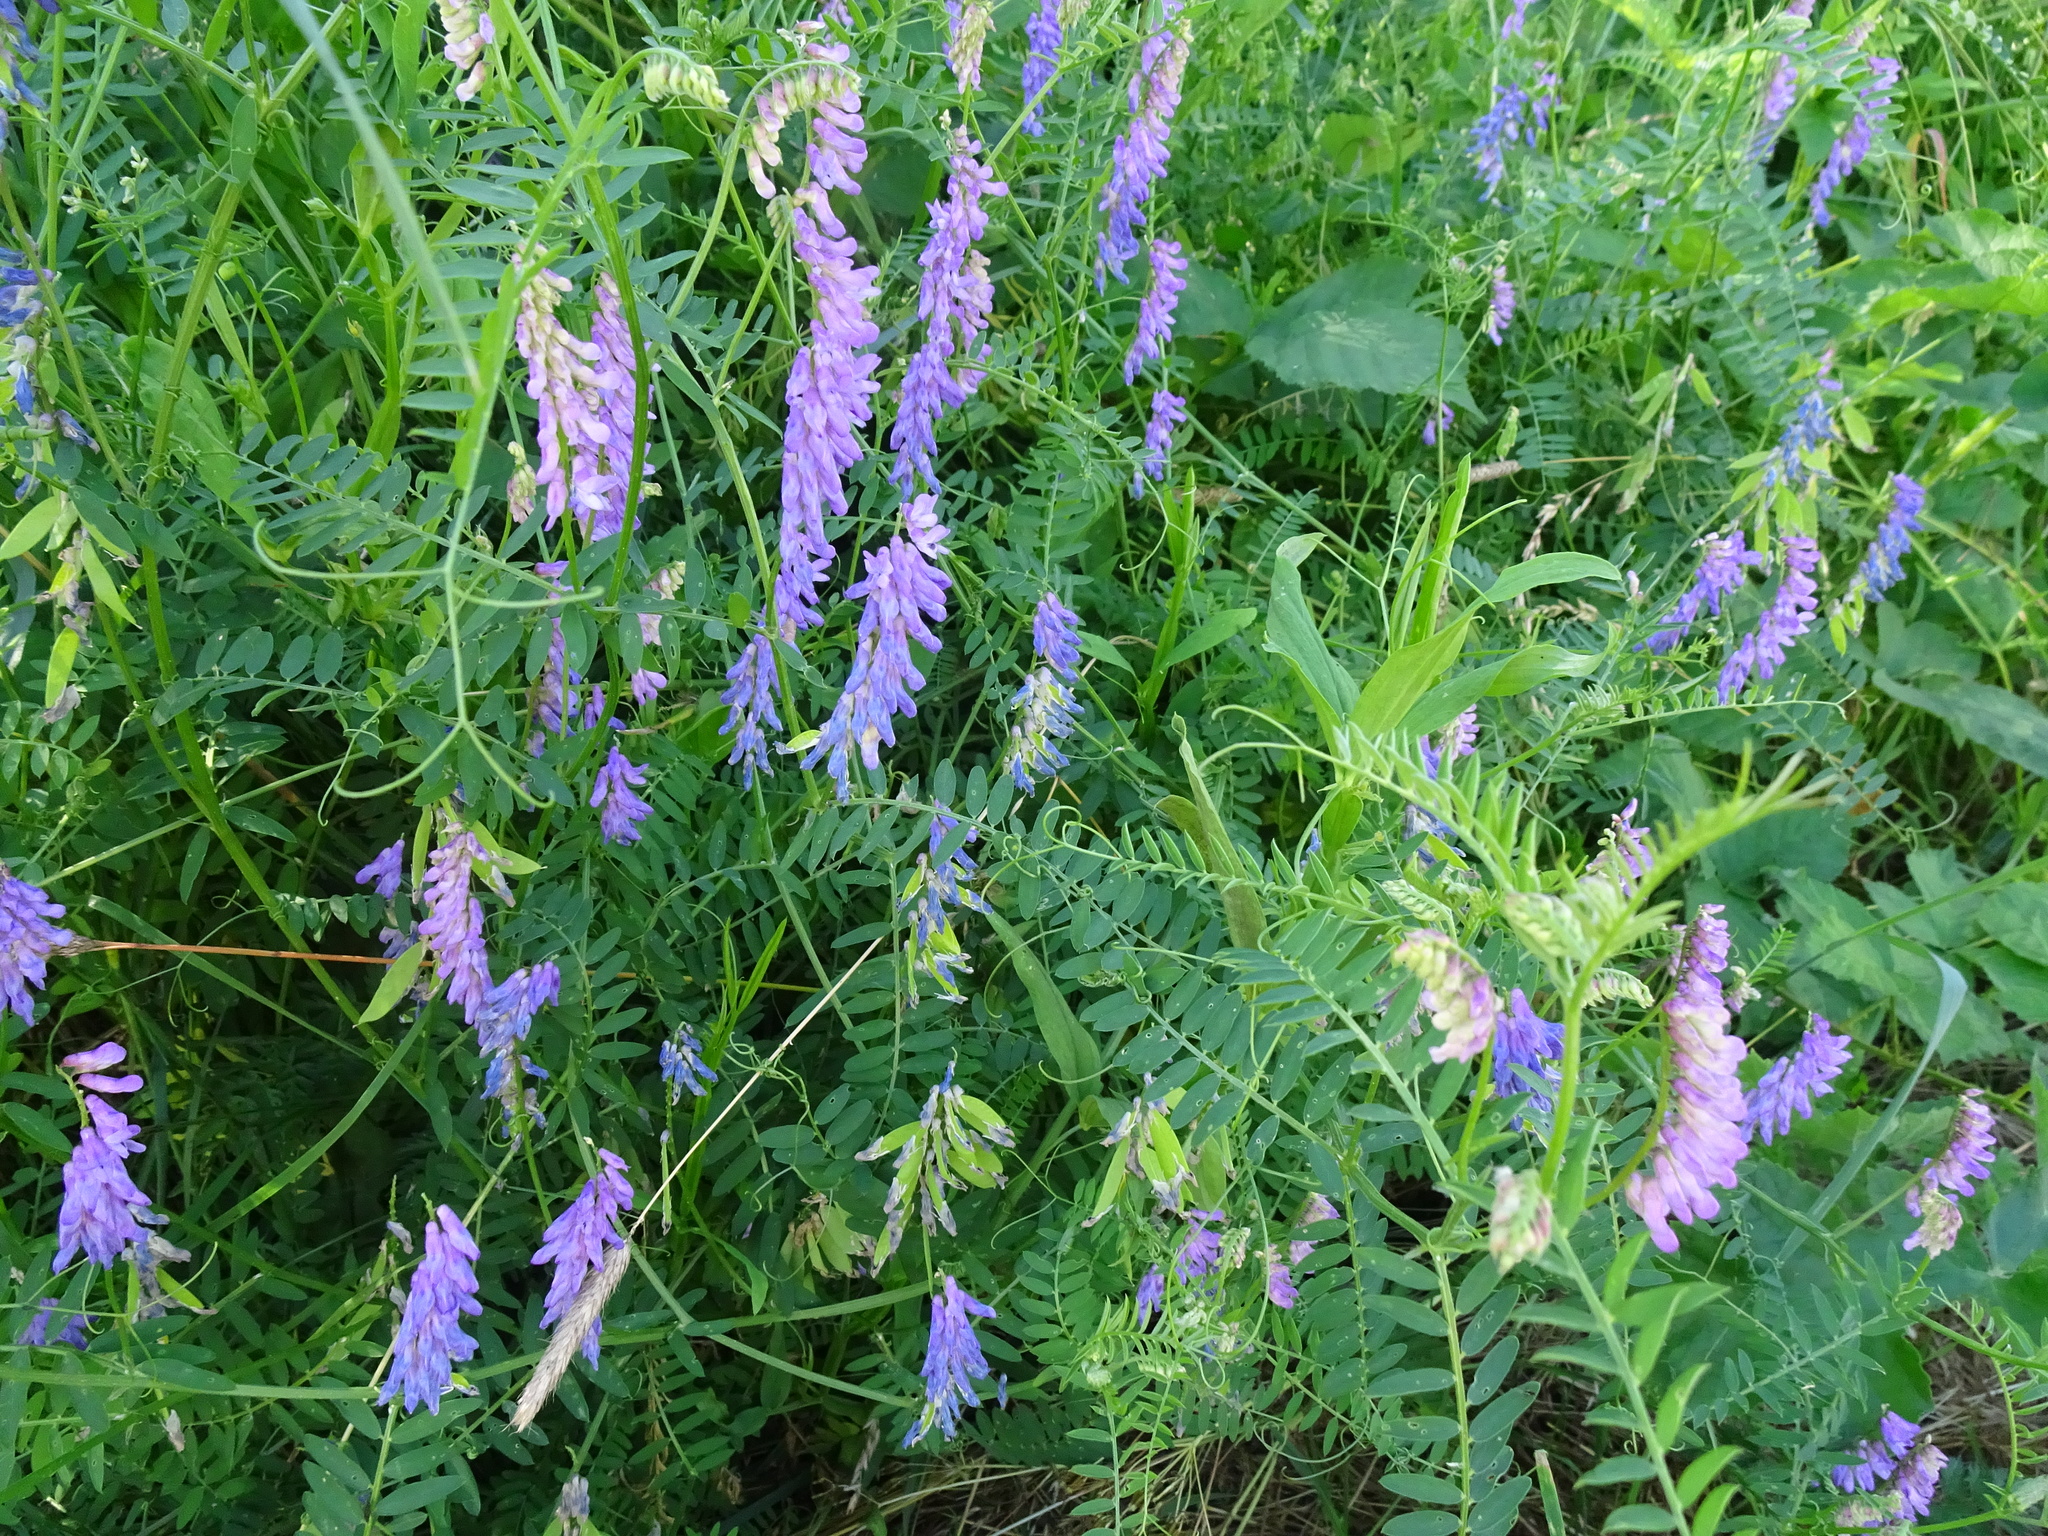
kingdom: Plantae
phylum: Tracheophyta
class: Magnoliopsida
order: Fabales
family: Fabaceae
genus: Vicia
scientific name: Vicia cracca
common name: Bird vetch
